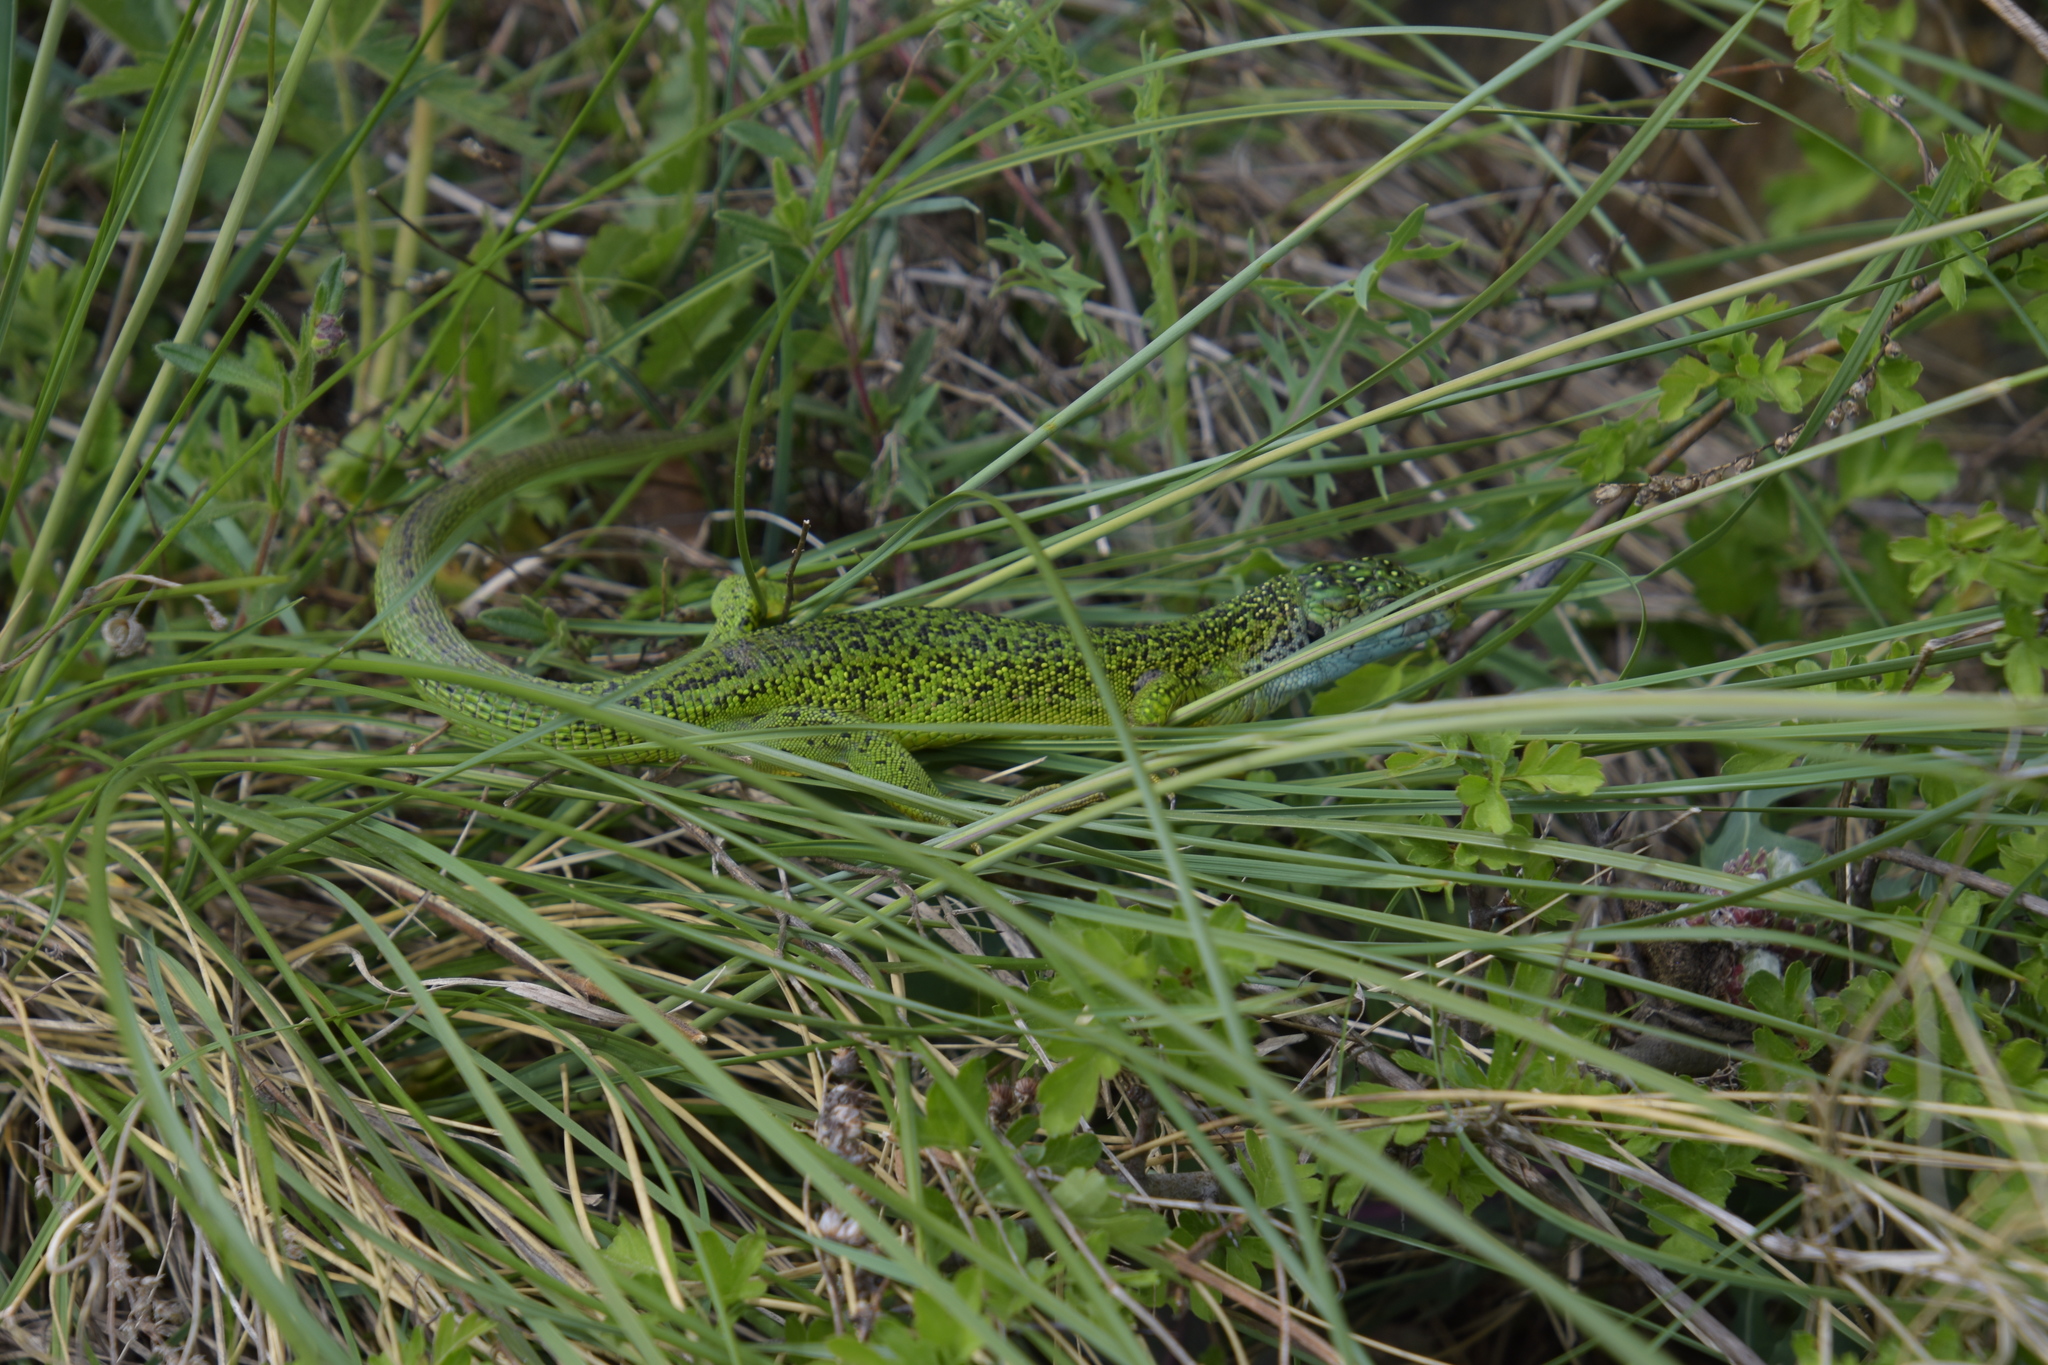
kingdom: Animalia
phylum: Chordata
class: Squamata
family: Lacertidae
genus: Lacerta
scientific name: Lacerta bilineata
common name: Western green lizard
